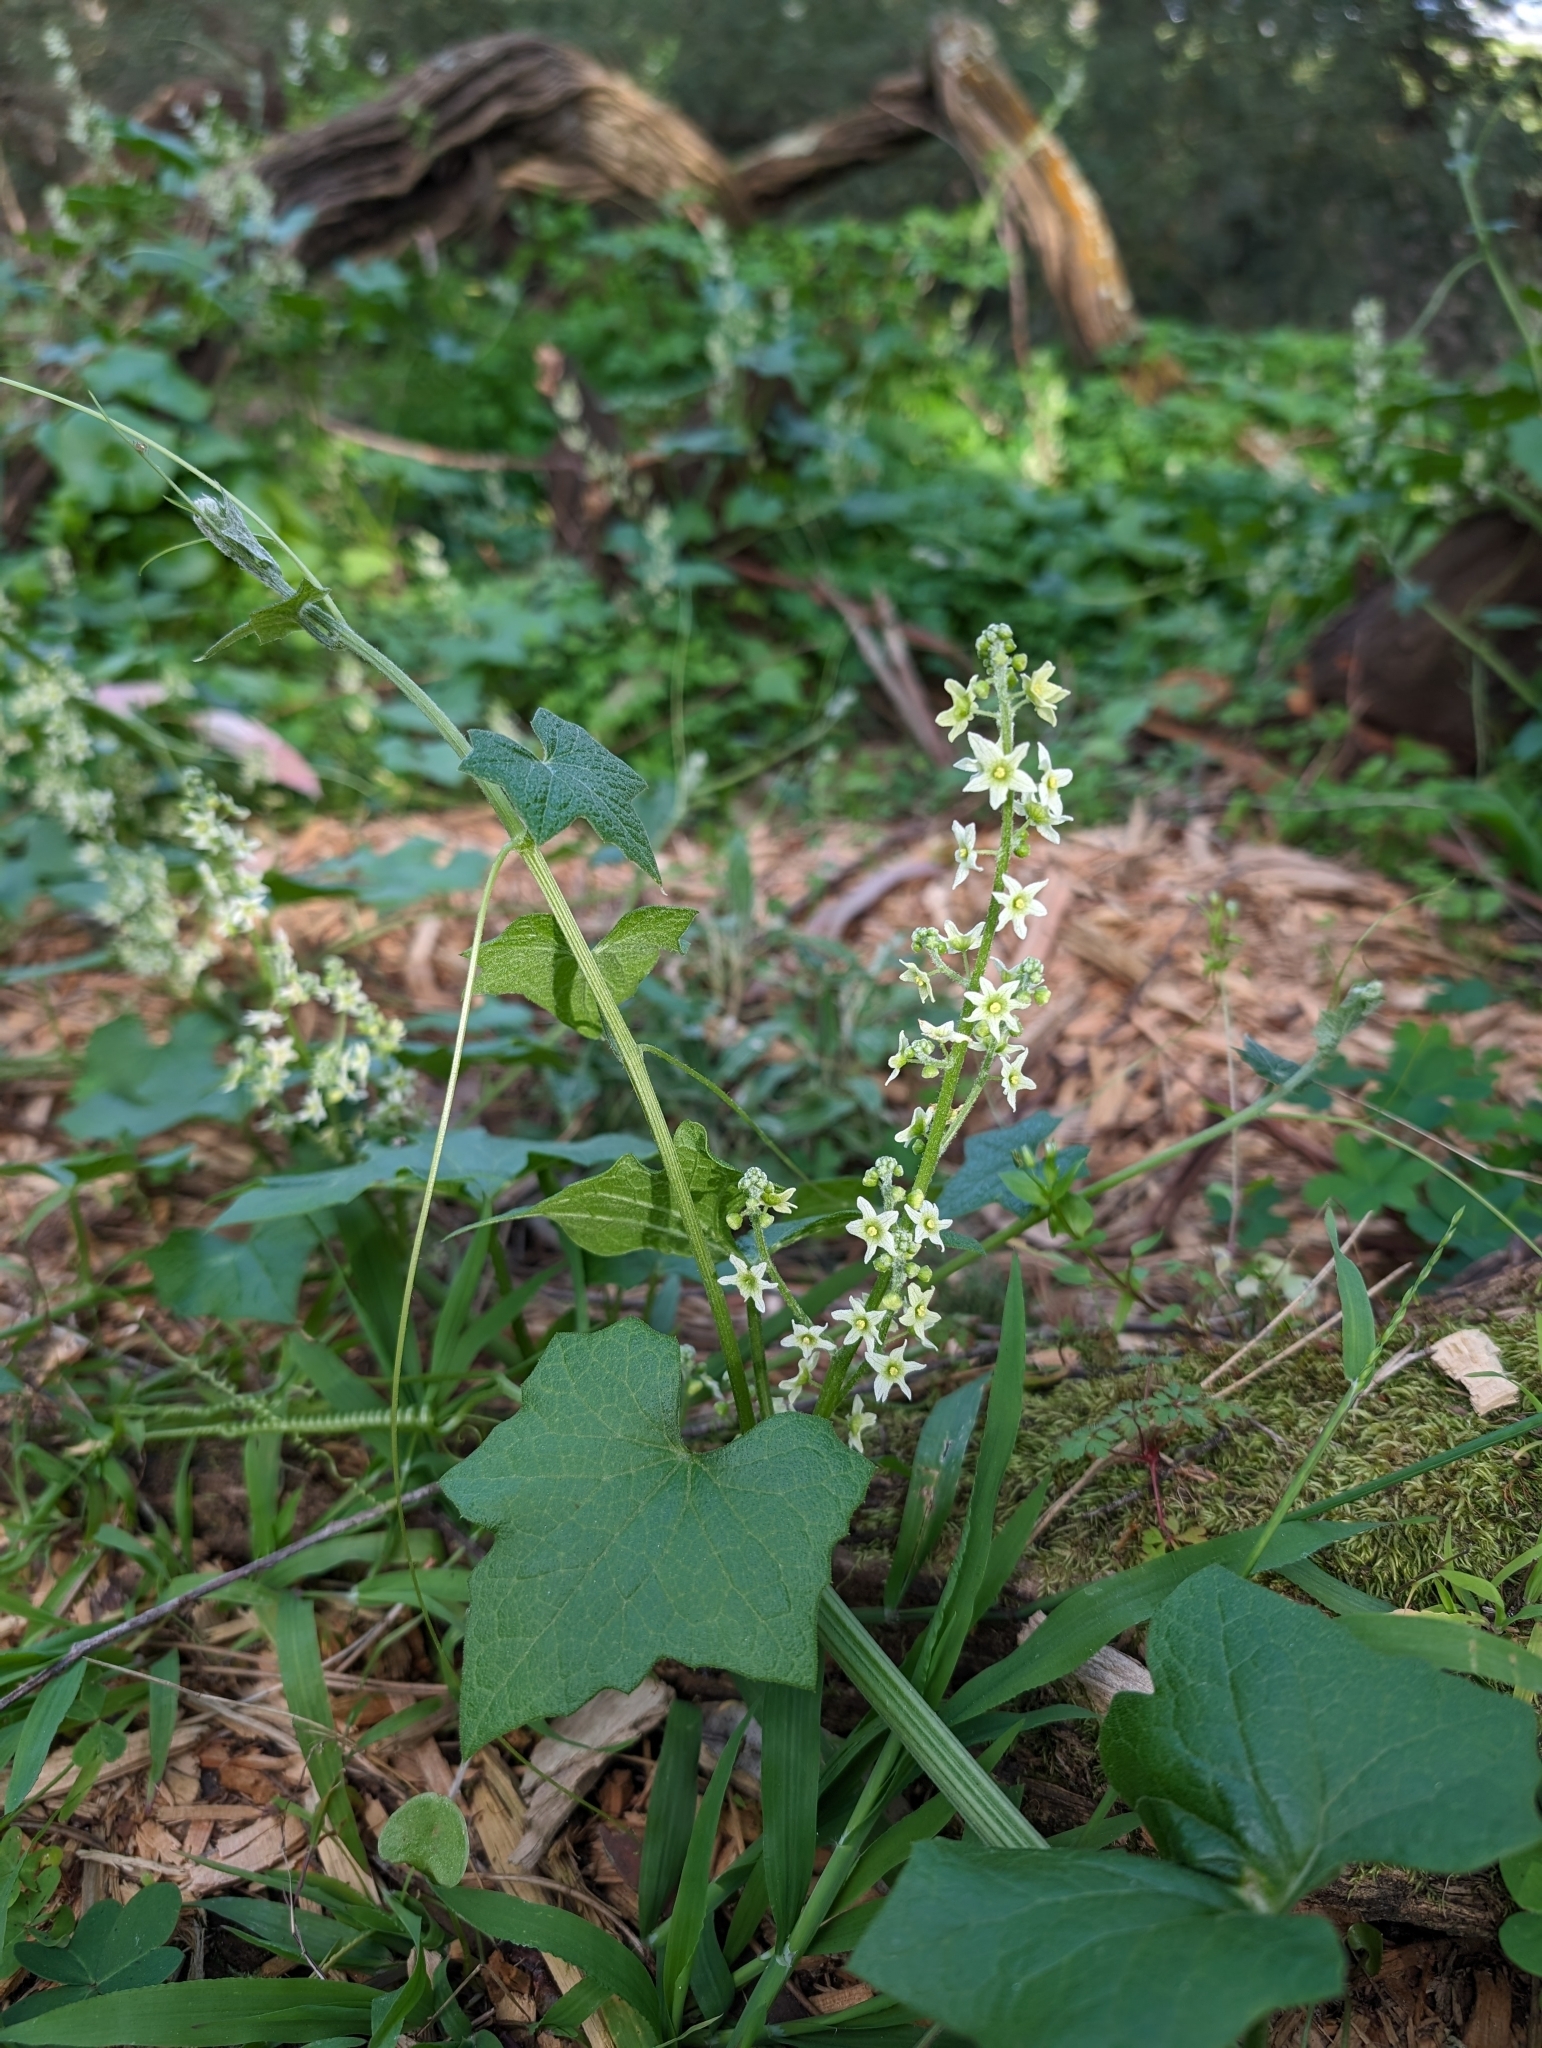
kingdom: Plantae
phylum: Tracheophyta
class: Magnoliopsida
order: Cucurbitales
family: Cucurbitaceae
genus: Marah
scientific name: Marah fabacea
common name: California manroot
